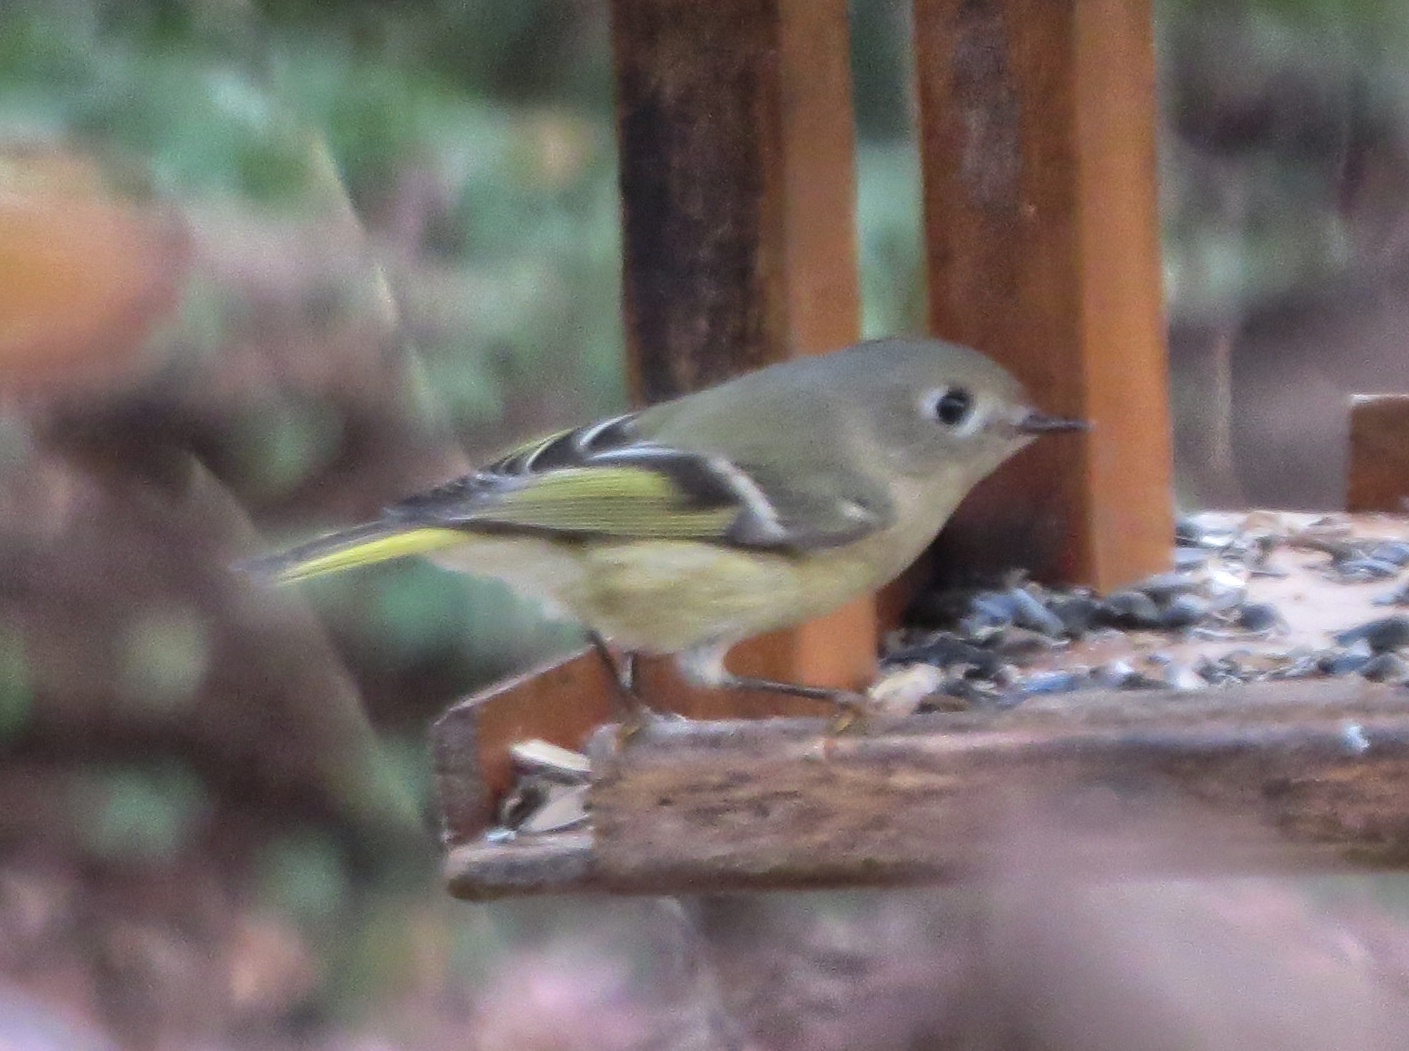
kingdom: Animalia
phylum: Chordata
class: Aves
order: Passeriformes
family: Regulidae
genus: Regulus
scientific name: Regulus calendula
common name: Ruby-crowned kinglet
